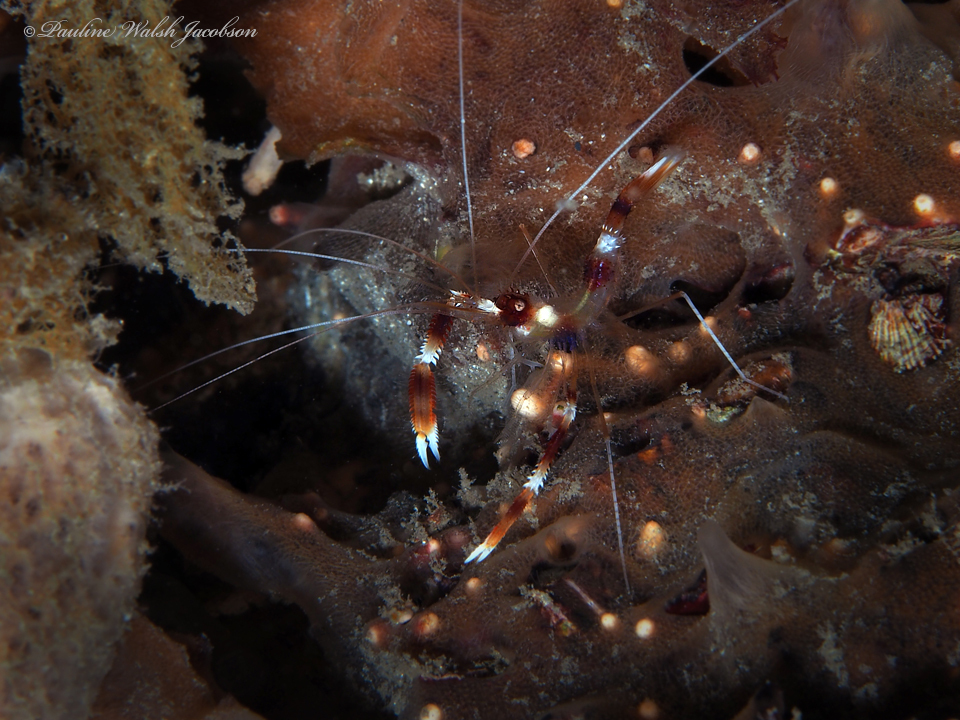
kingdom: Animalia
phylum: Arthropoda
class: Malacostraca
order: Decapoda
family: Stenopodidae
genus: Stenopus
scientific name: Stenopus hispidus
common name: Banded coral shrimp
